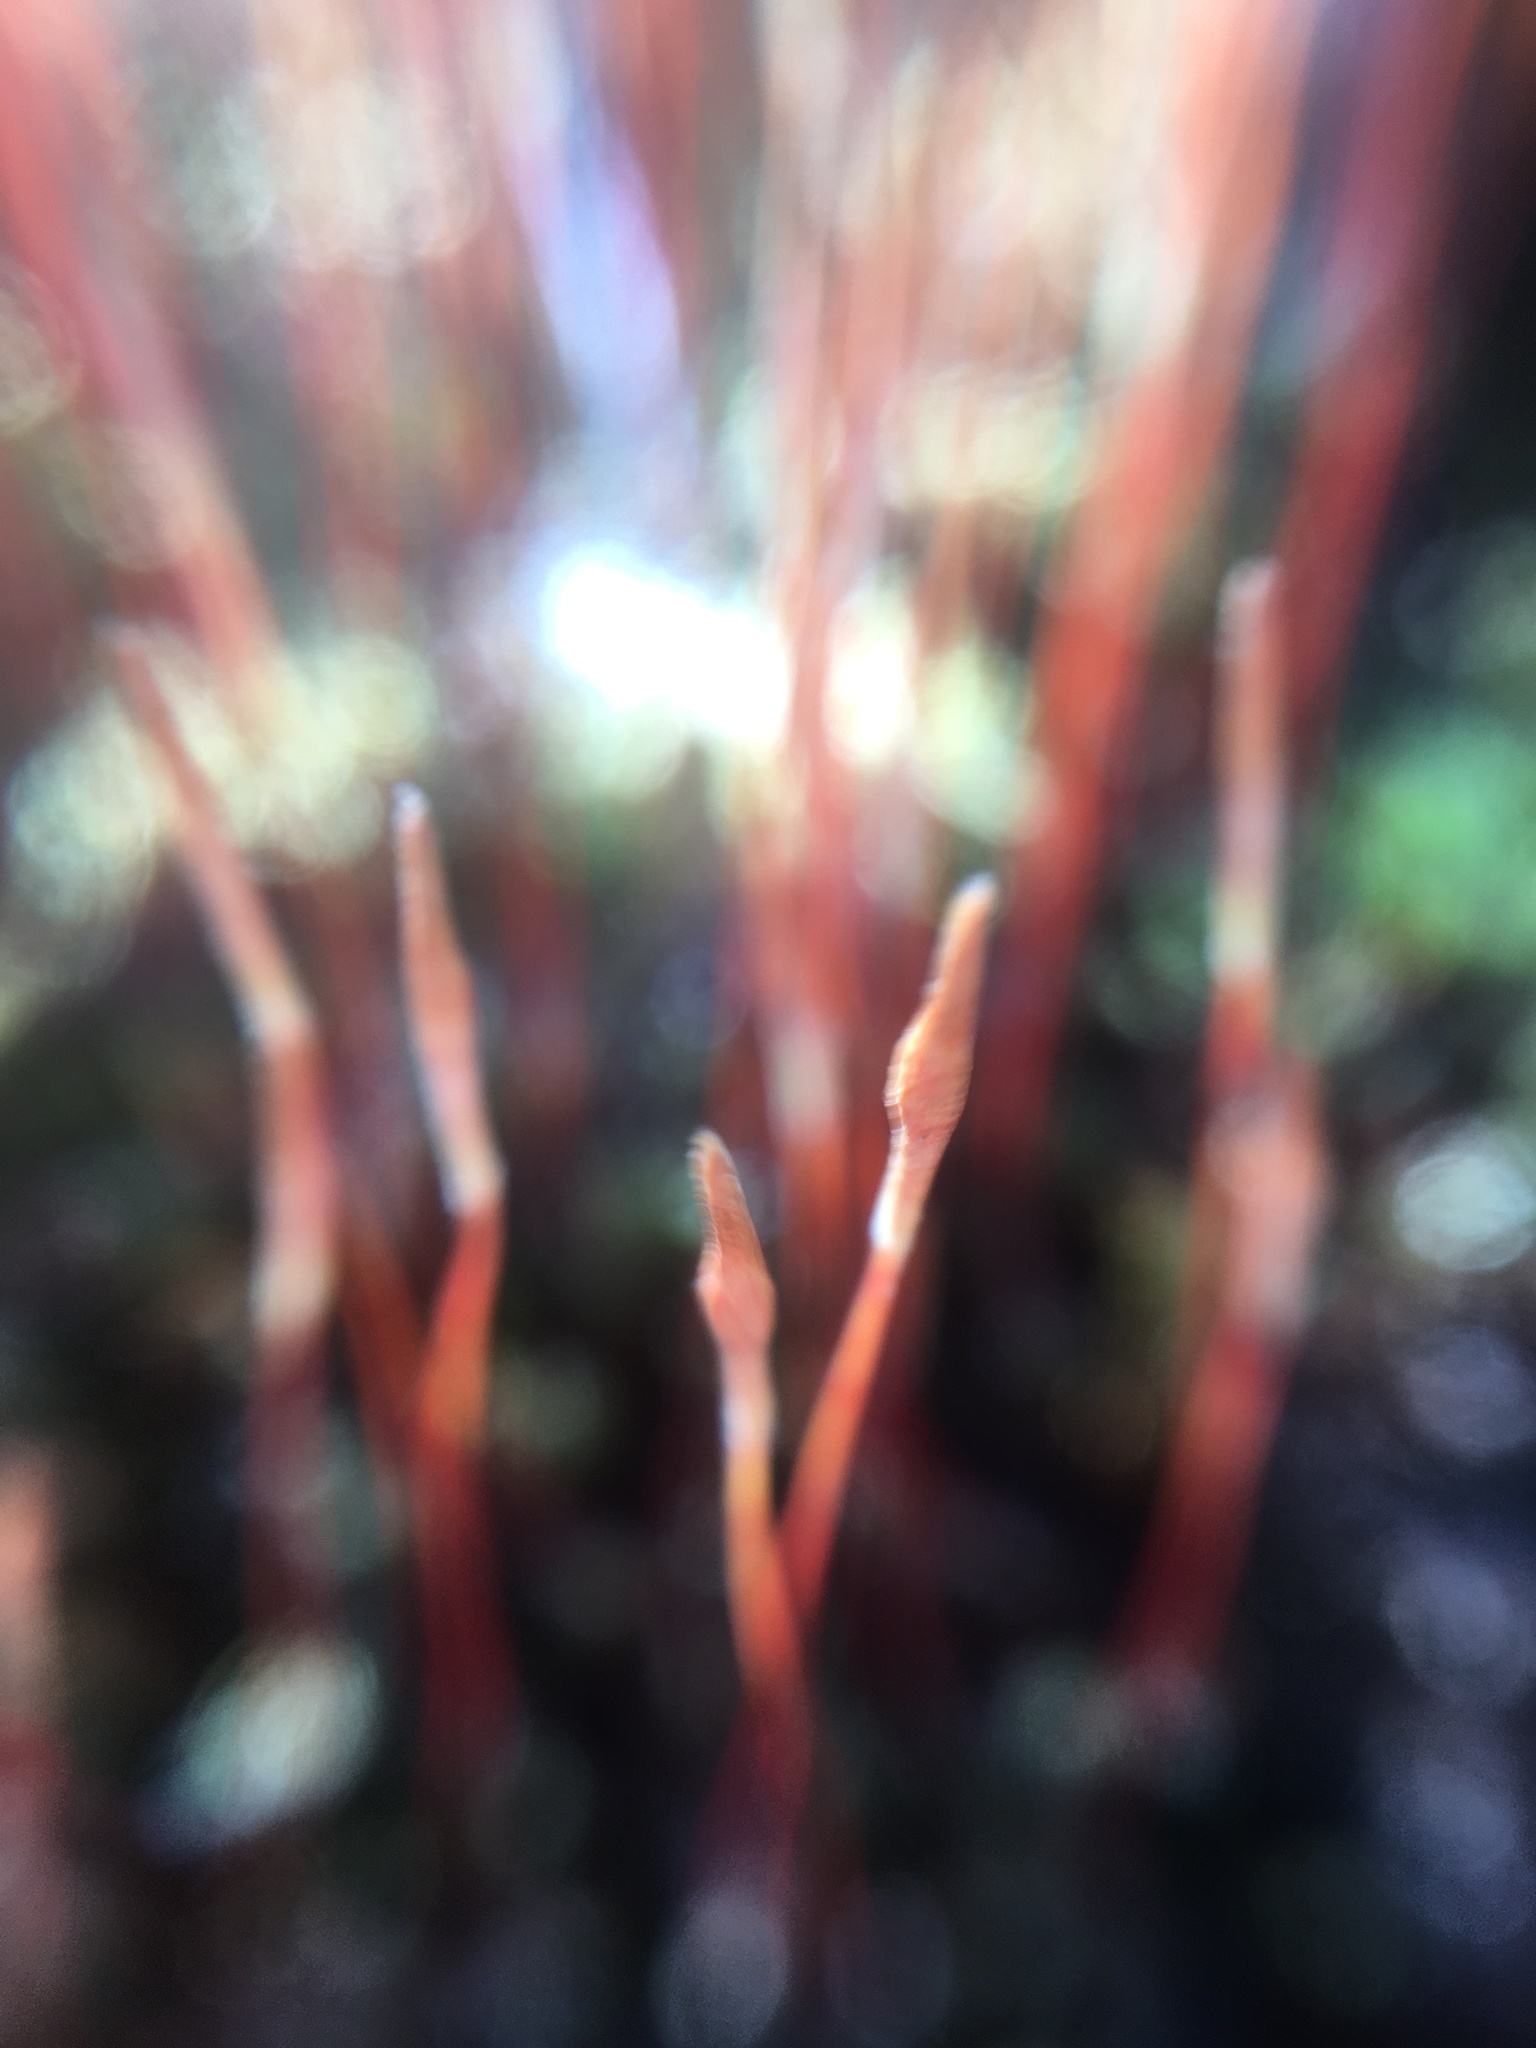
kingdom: Plantae
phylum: Bryophyta
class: Polytrichopsida
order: Polytrichales
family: Polytrichaceae
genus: Polytrichum
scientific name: Polytrichum piliferum
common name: Bristly haircap
